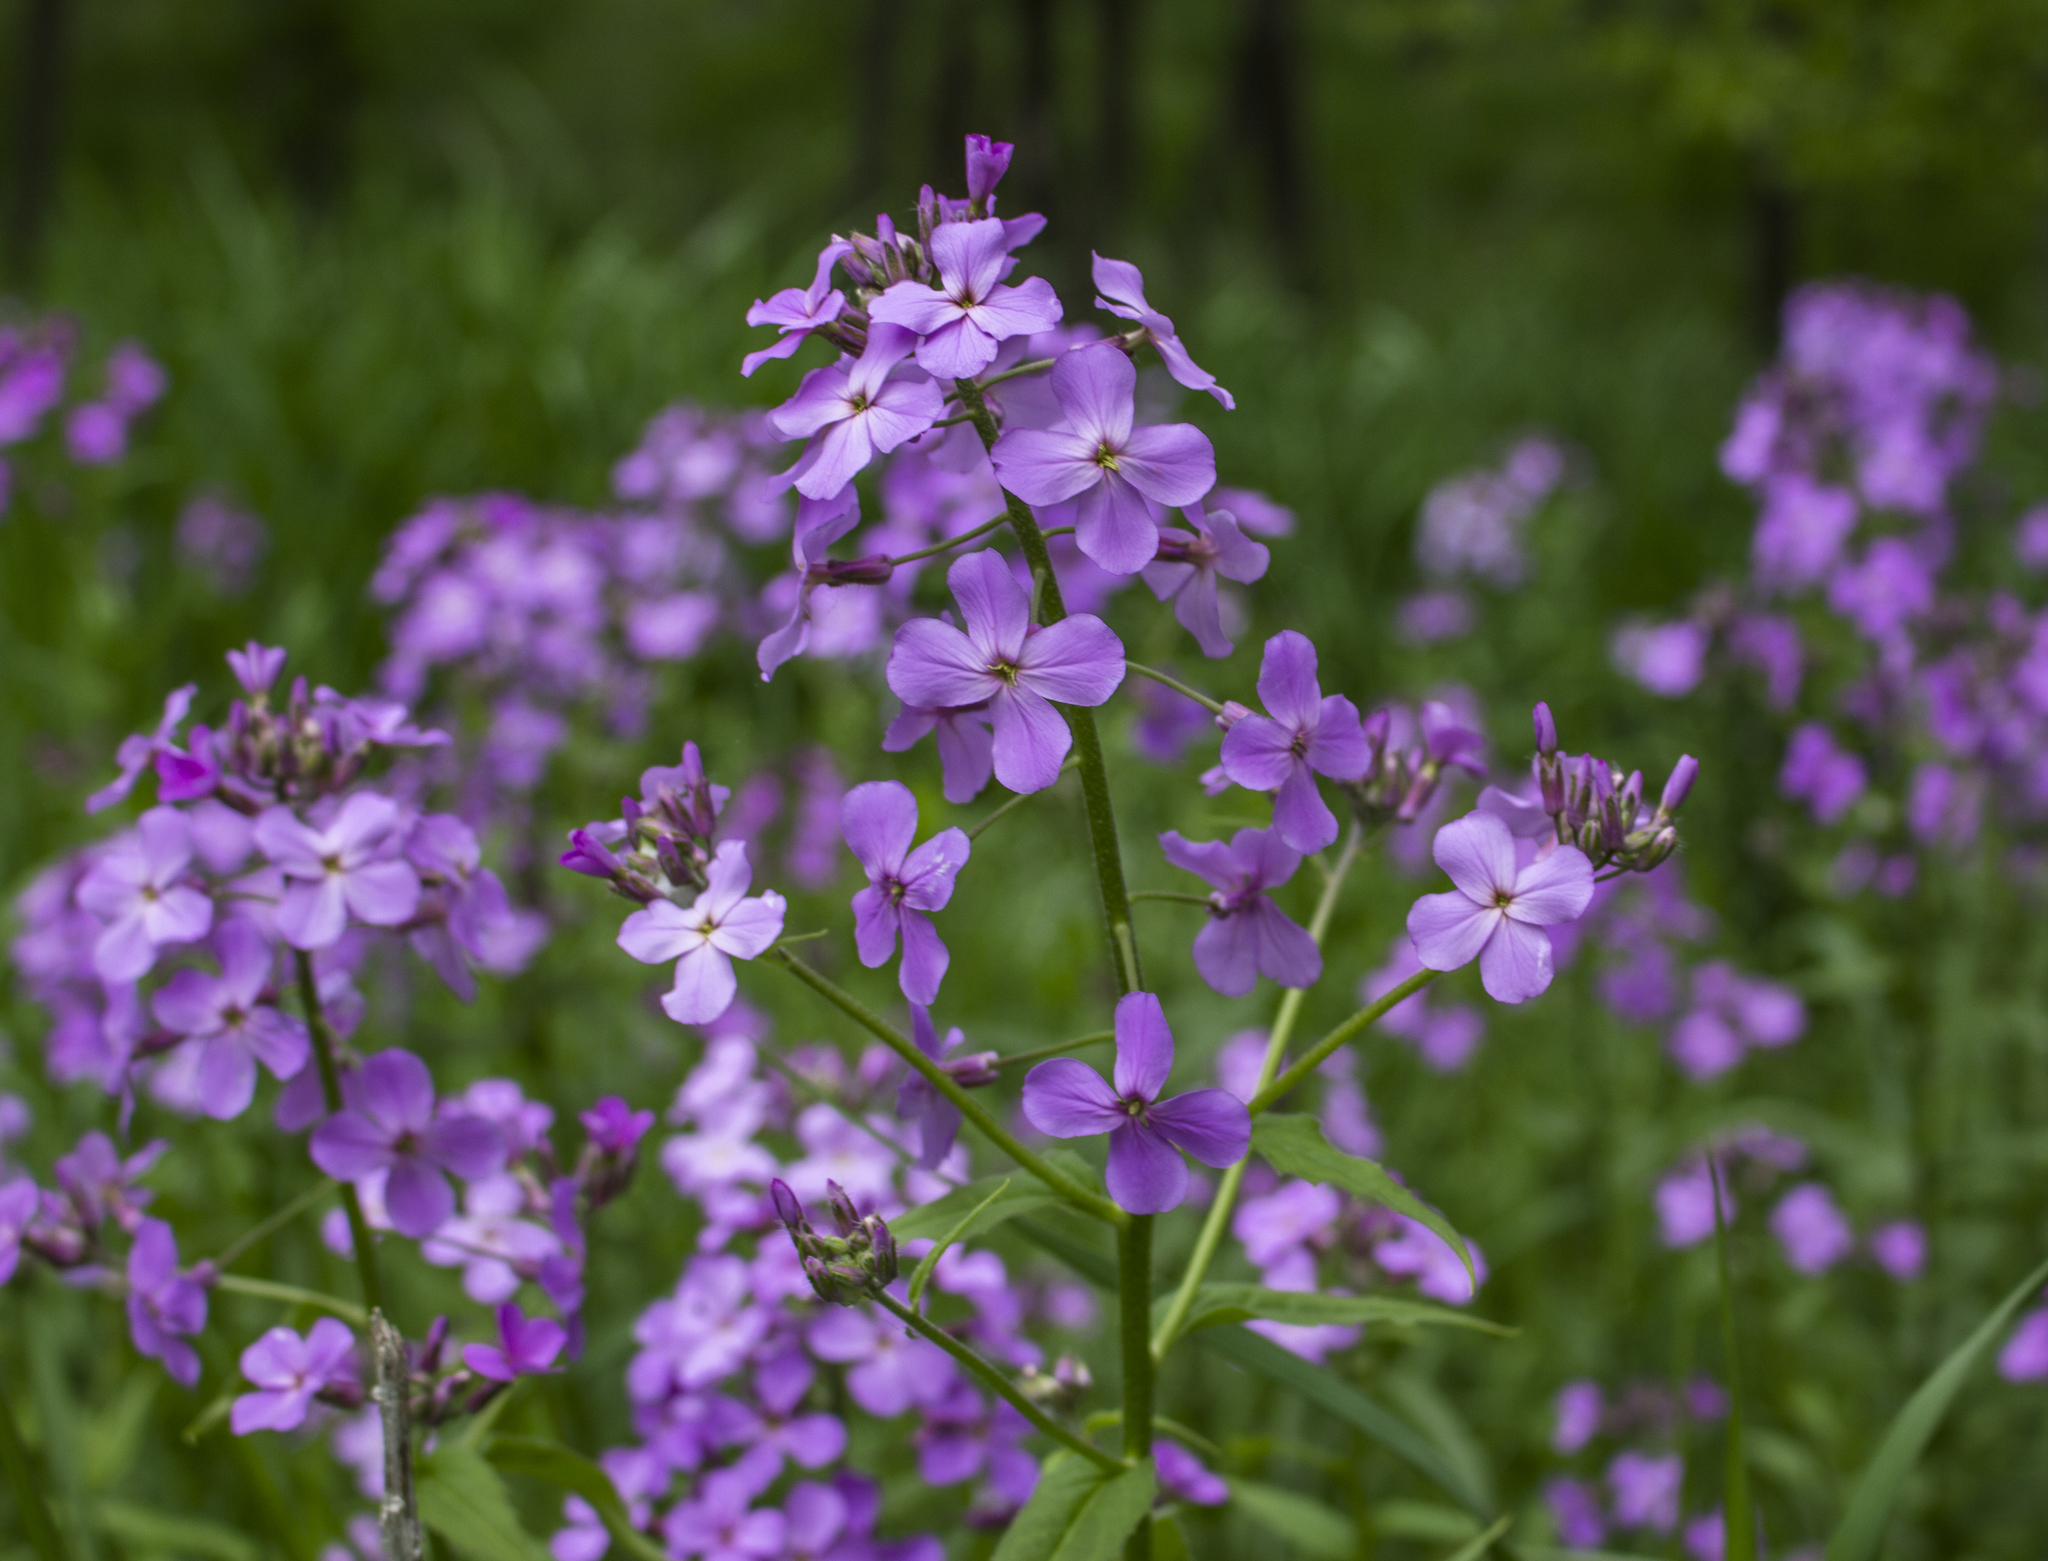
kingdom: Plantae
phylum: Tracheophyta
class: Magnoliopsida
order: Brassicales
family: Brassicaceae
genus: Hesperis
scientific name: Hesperis matronalis
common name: Dame's-violet
